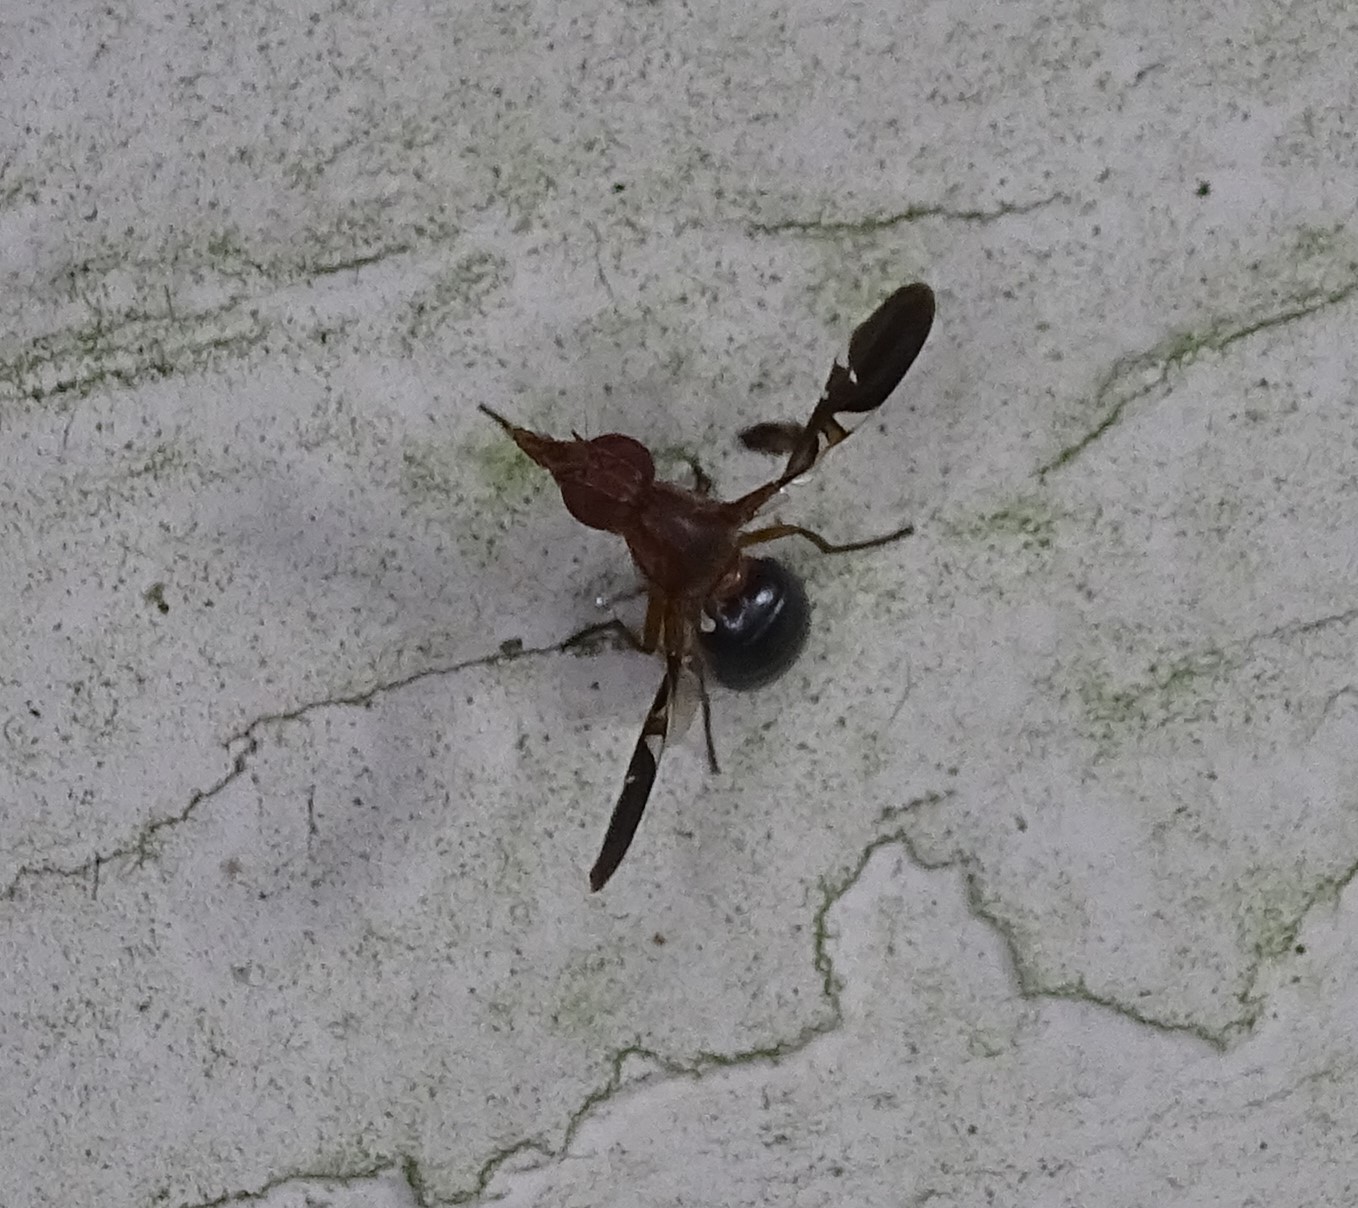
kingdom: Animalia
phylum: Arthropoda
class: Insecta
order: Diptera
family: Ulidiidae
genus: Delphinia
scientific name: Delphinia picta
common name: Common picture-winged fly
